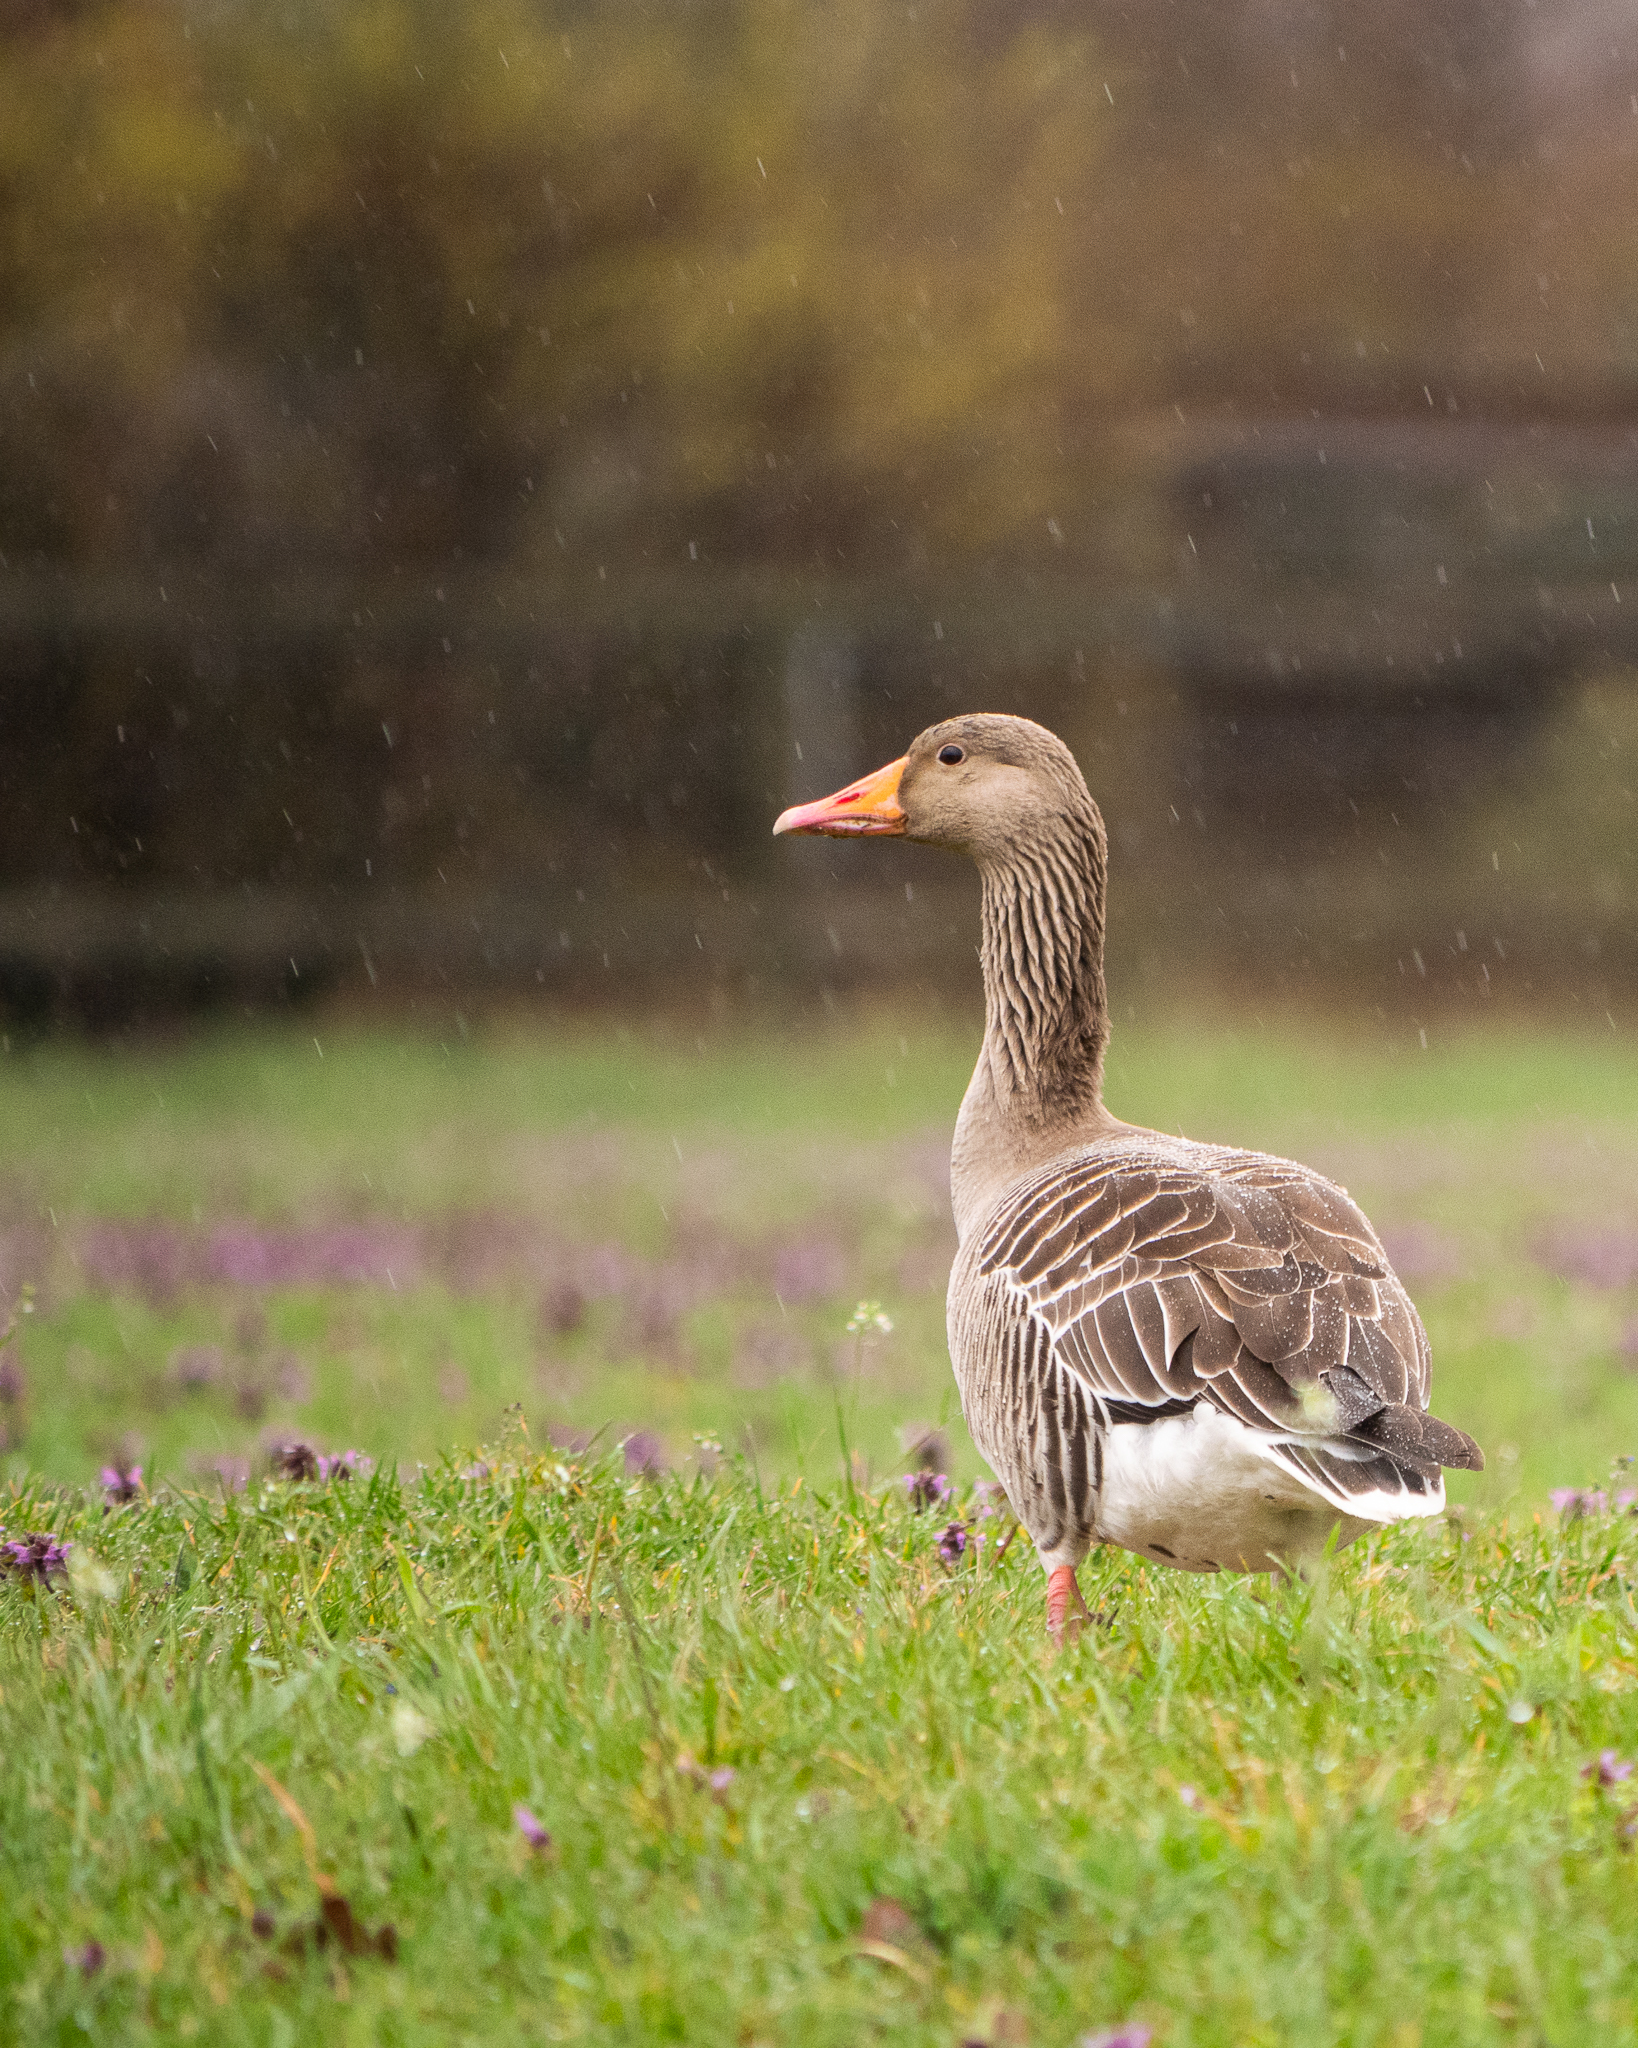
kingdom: Animalia
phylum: Chordata
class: Aves
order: Anseriformes
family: Anatidae
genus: Anser
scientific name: Anser anser
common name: Greylag goose
